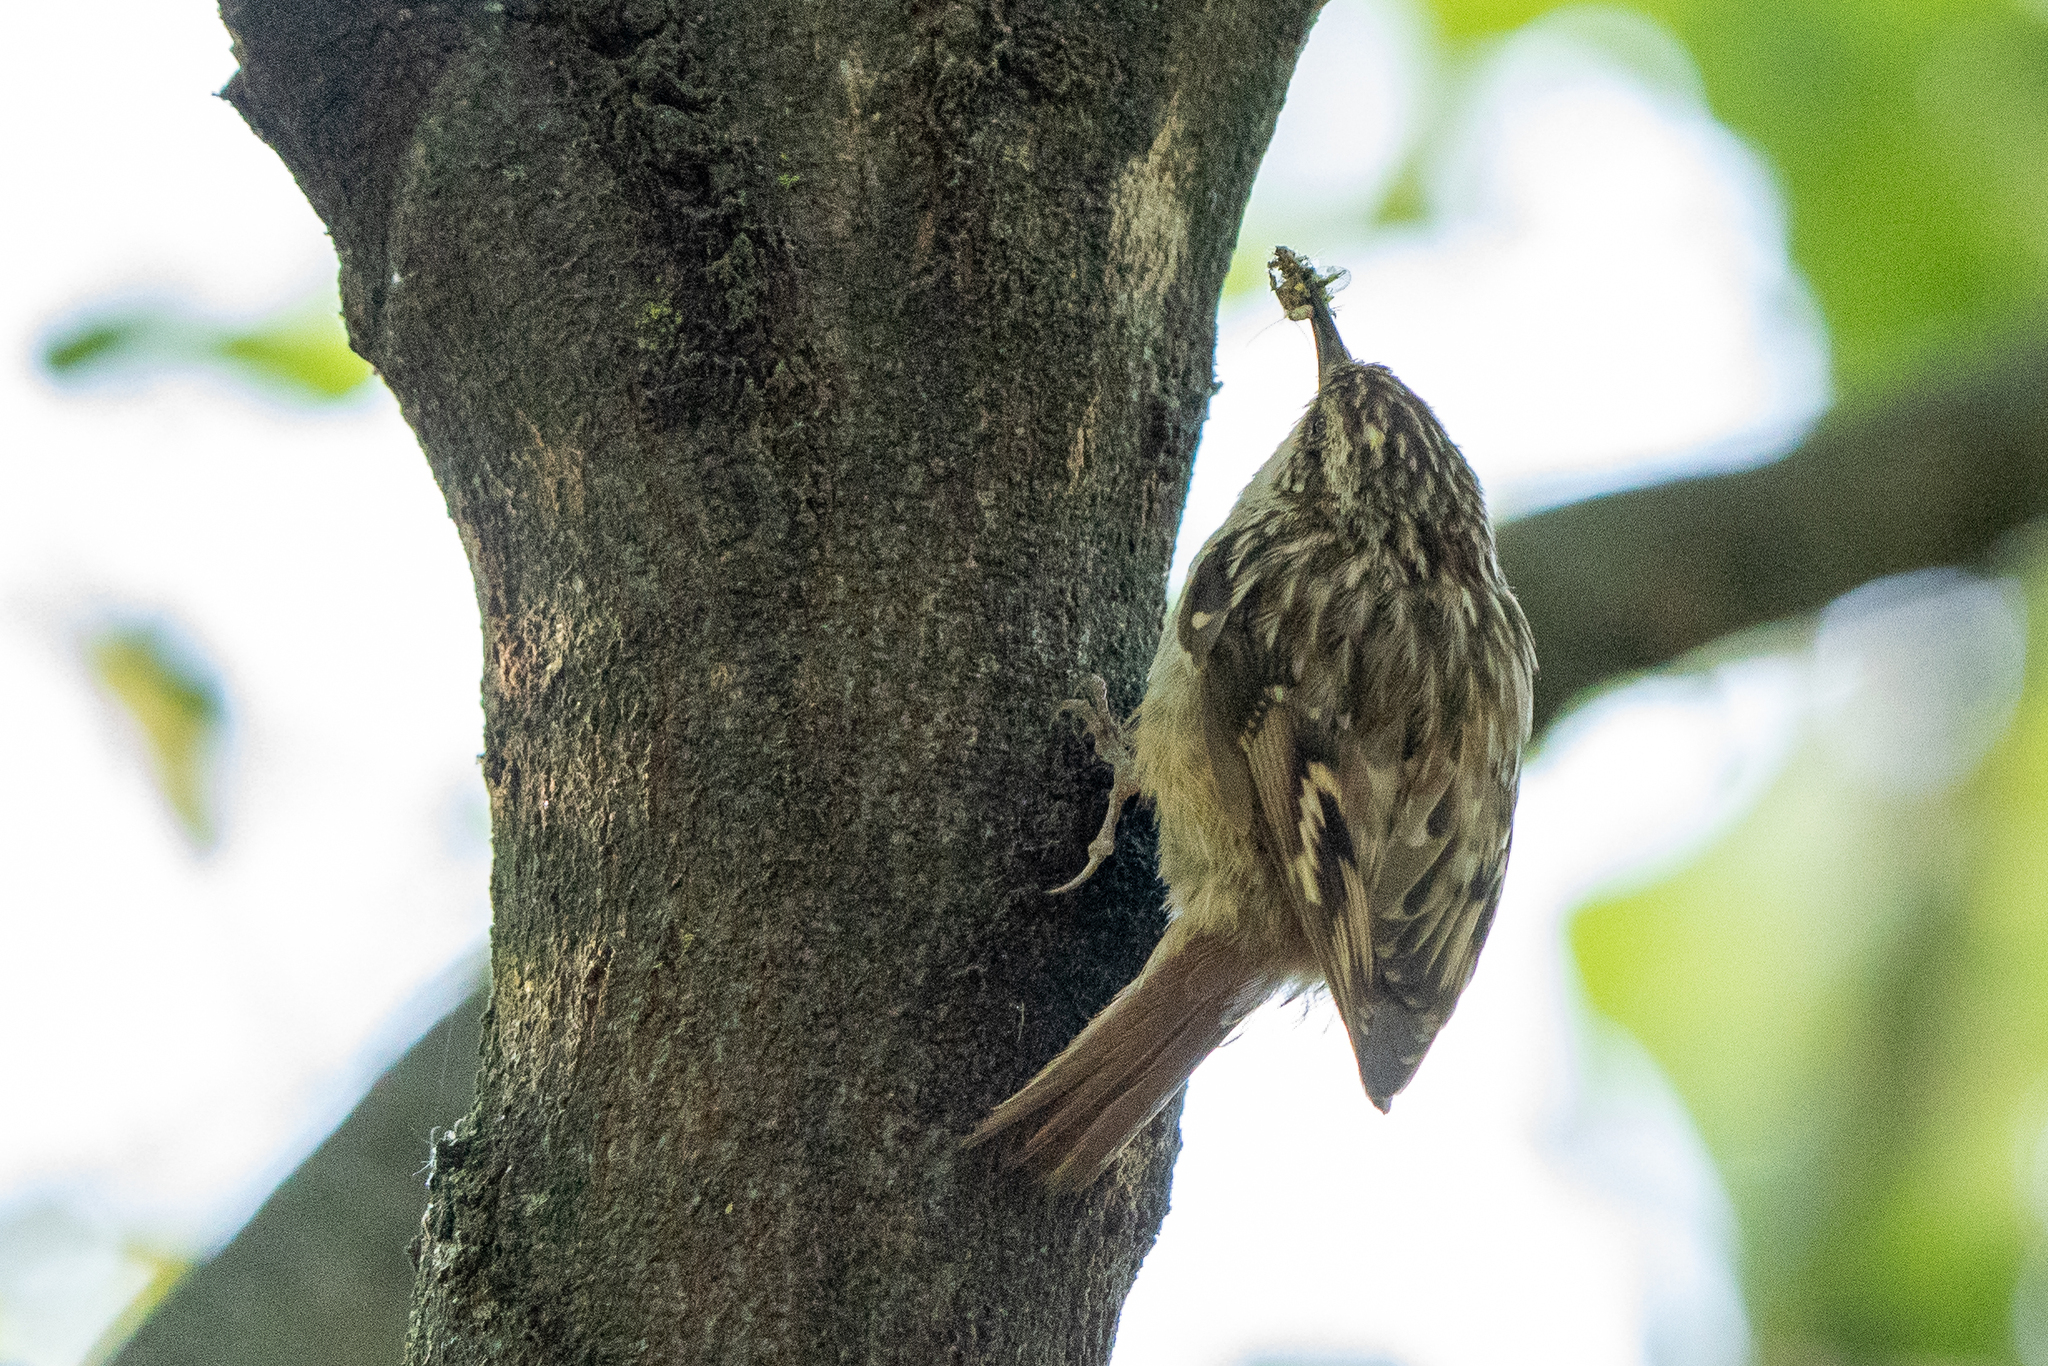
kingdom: Animalia
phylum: Chordata
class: Aves
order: Passeriformes
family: Certhiidae
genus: Certhia
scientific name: Certhia brachydactyla
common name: Short-toed treecreeper
